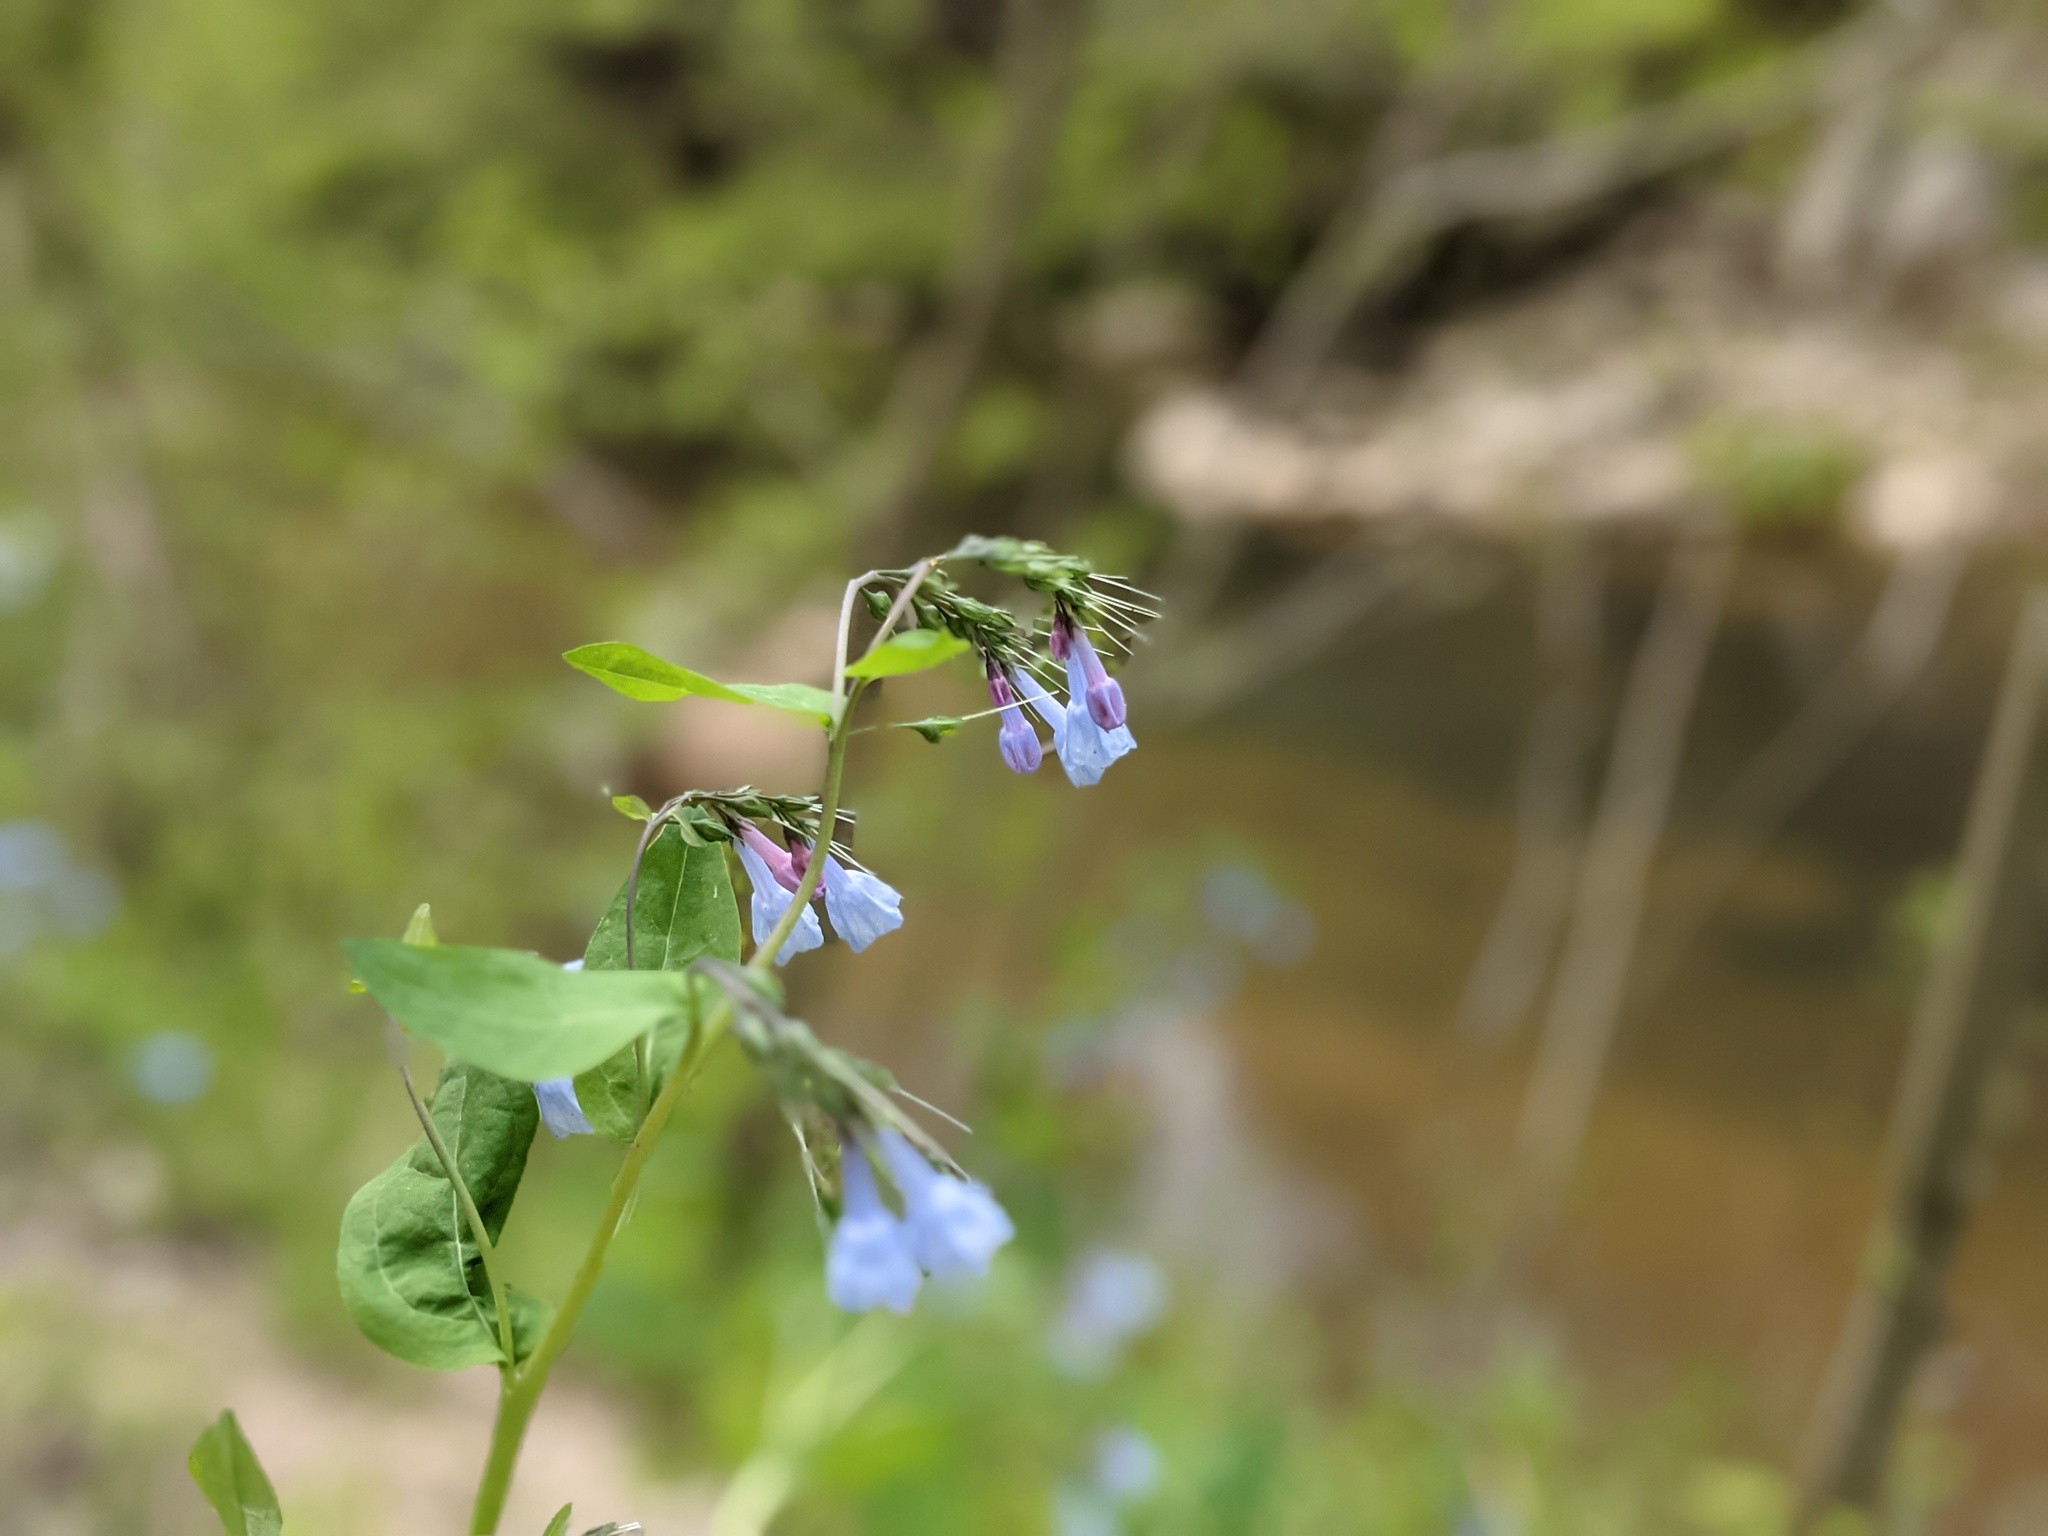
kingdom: Plantae
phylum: Tracheophyta
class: Magnoliopsida
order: Boraginales
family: Boraginaceae
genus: Mertensia
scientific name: Mertensia virginica
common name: Virginia bluebells
